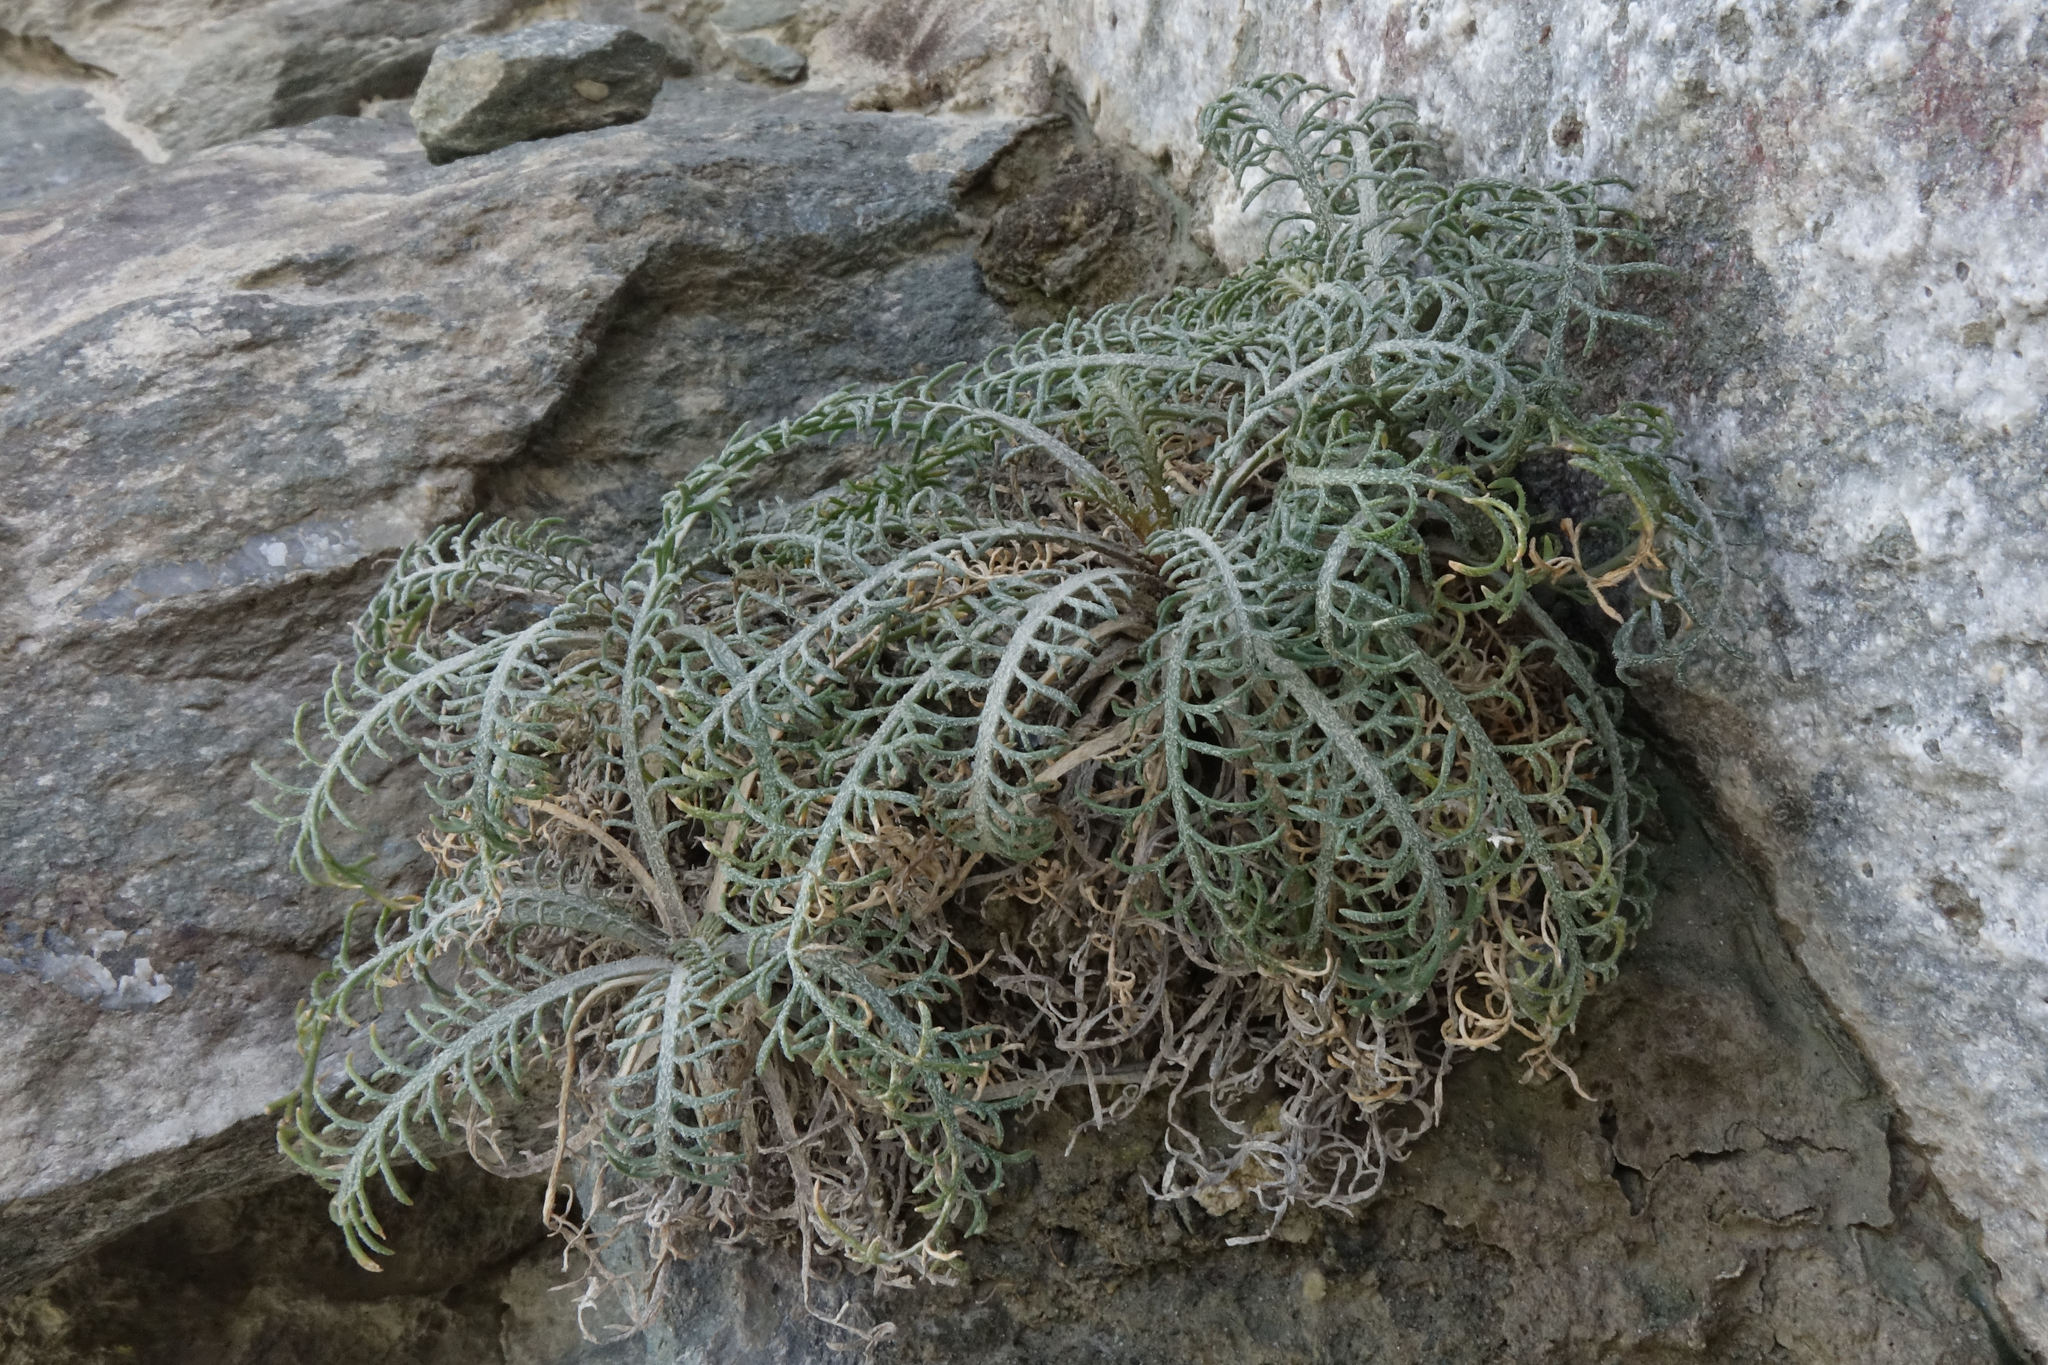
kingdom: Plantae
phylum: Tracheophyta
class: Magnoliopsida
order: Brassicales
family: Brassicaceae
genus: Lepidium
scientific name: Lepidium sisymbrioides
